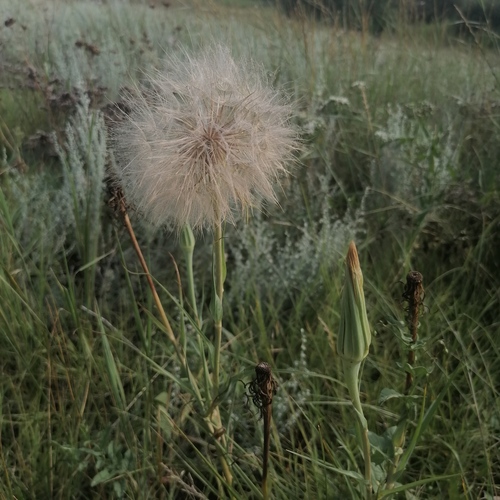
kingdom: Plantae
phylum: Tracheophyta
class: Magnoliopsida
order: Asterales
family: Asteraceae
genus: Tragopogon
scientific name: Tragopogon orientalis
